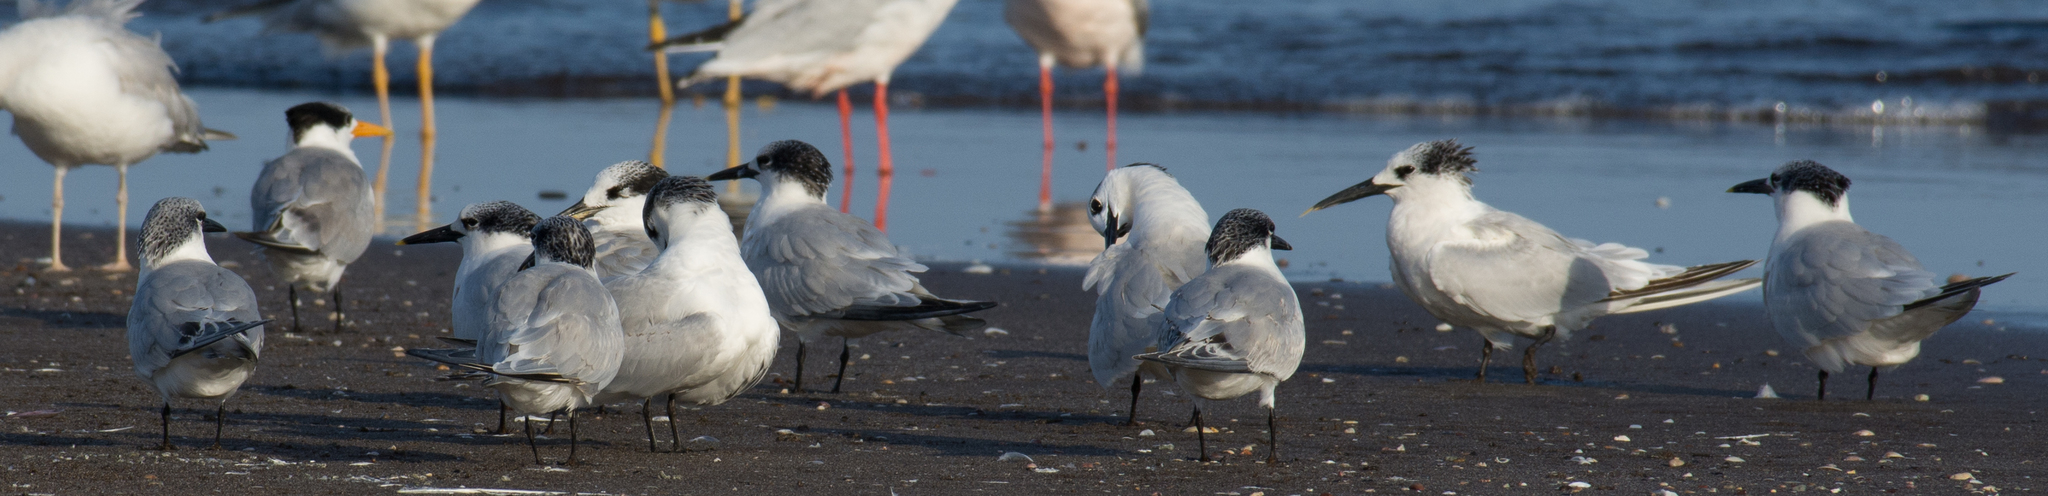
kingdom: Animalia
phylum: Chordata
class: Aves
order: Charadriiformes
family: Laridae
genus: Thalasseus
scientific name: Thalasseus sandvicensis
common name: Sandwich tern
